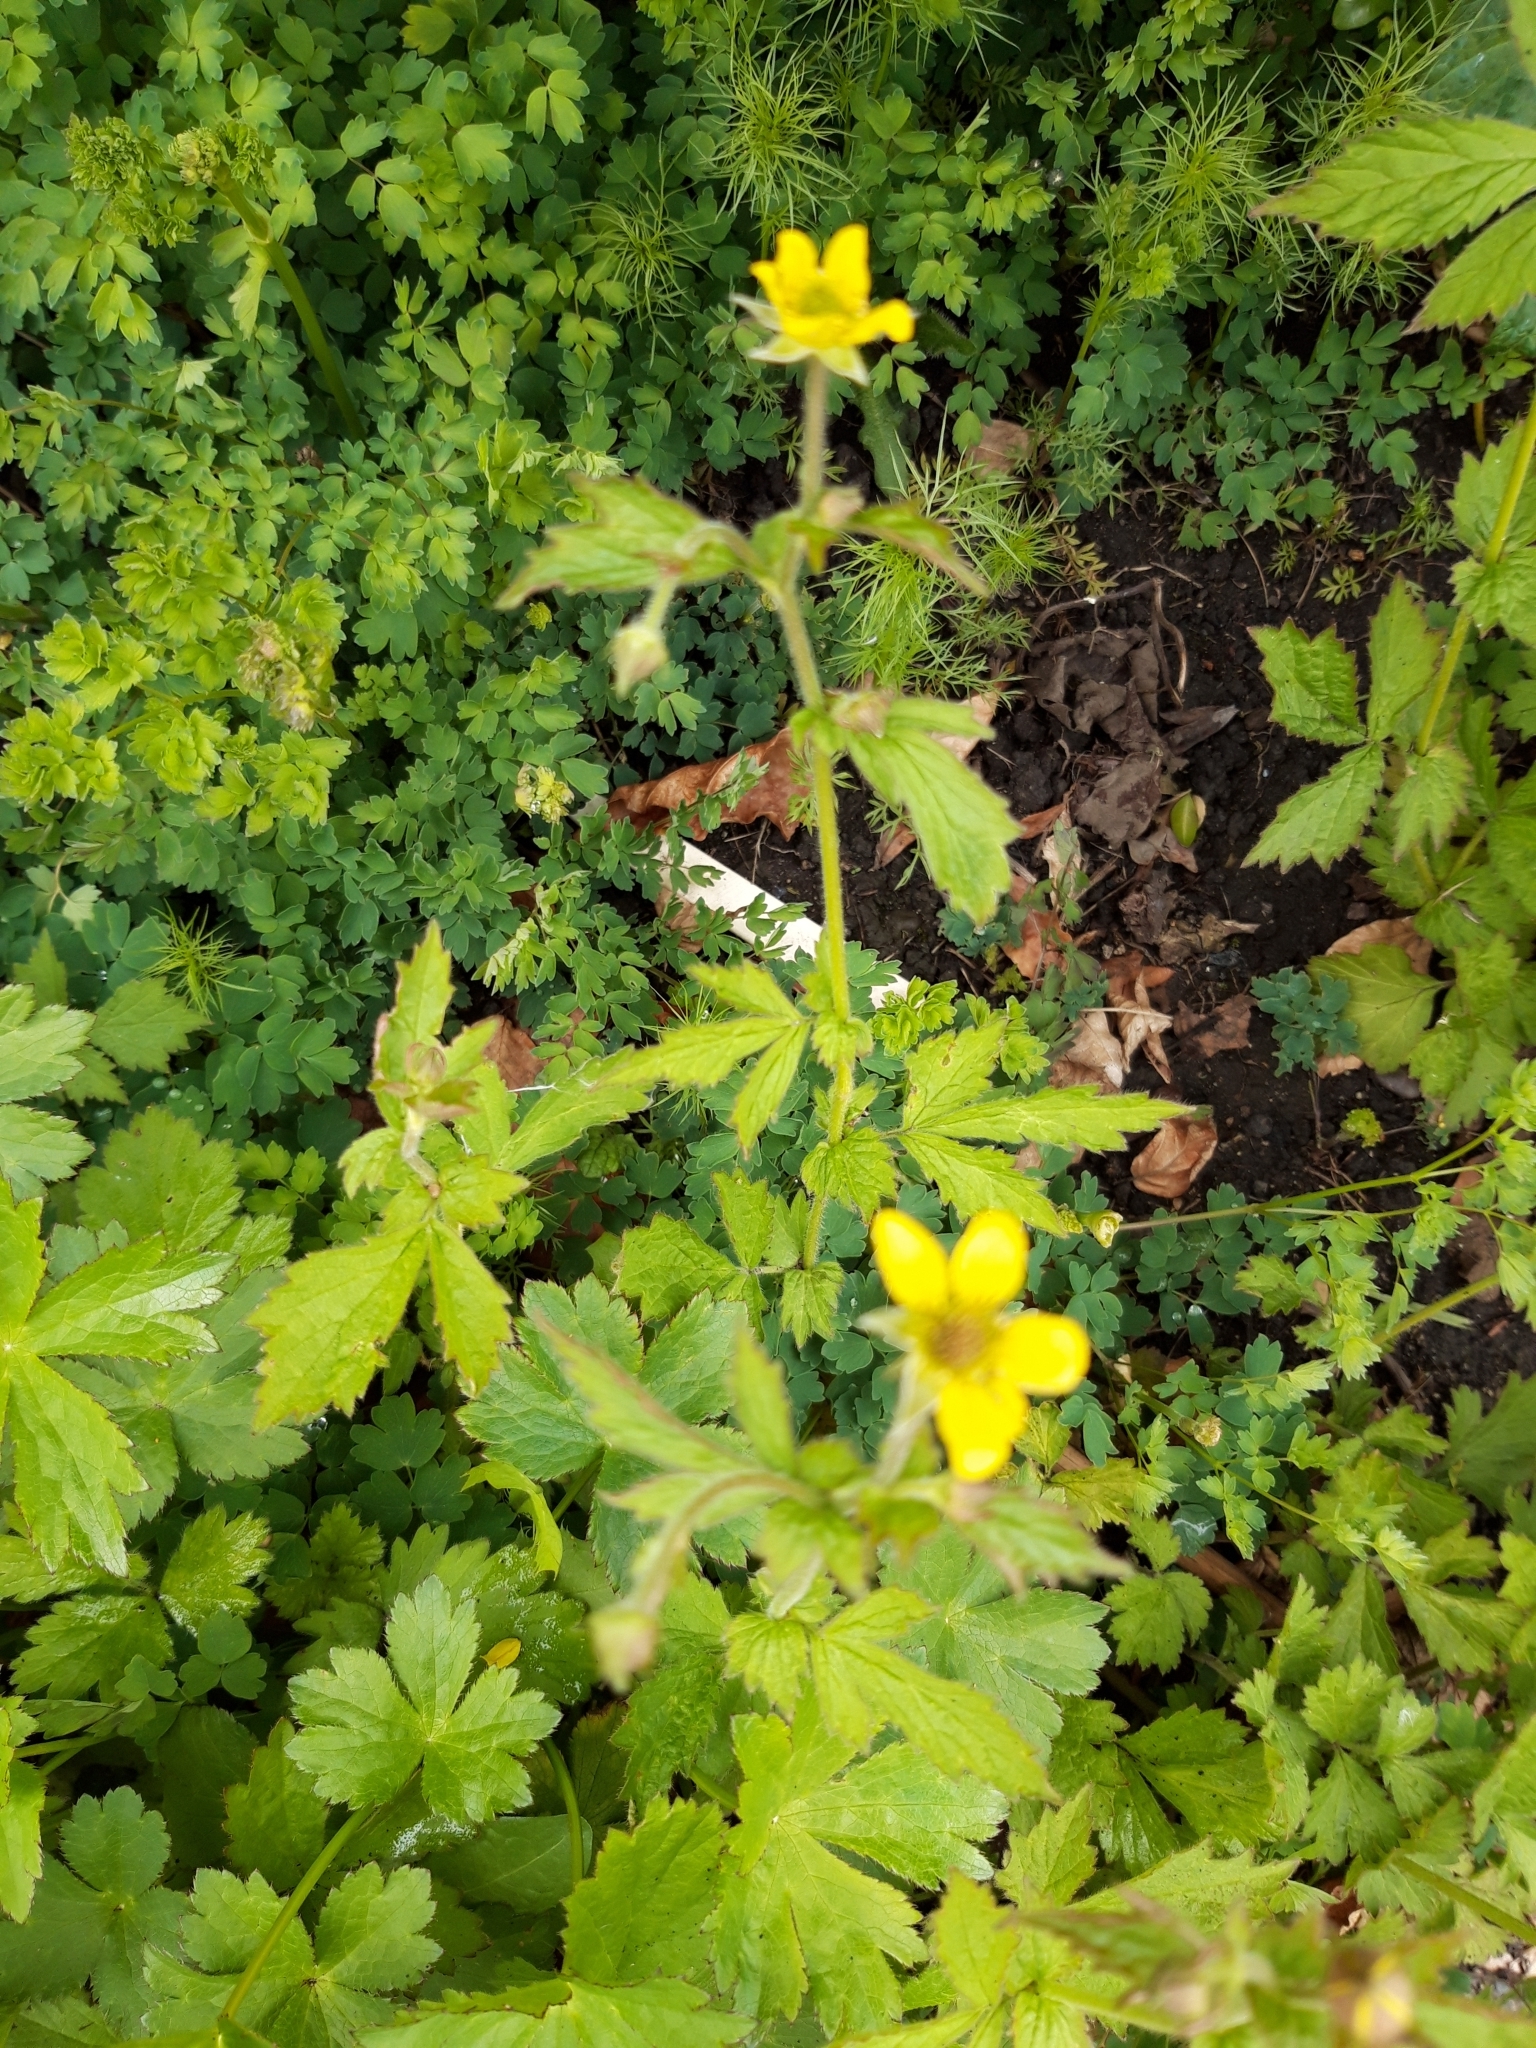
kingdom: Plantae
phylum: Tracheophyta
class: Magnoliopsida
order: Rosales
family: Rosaceae
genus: Geum
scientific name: Geum urbanum
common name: Wood avens
